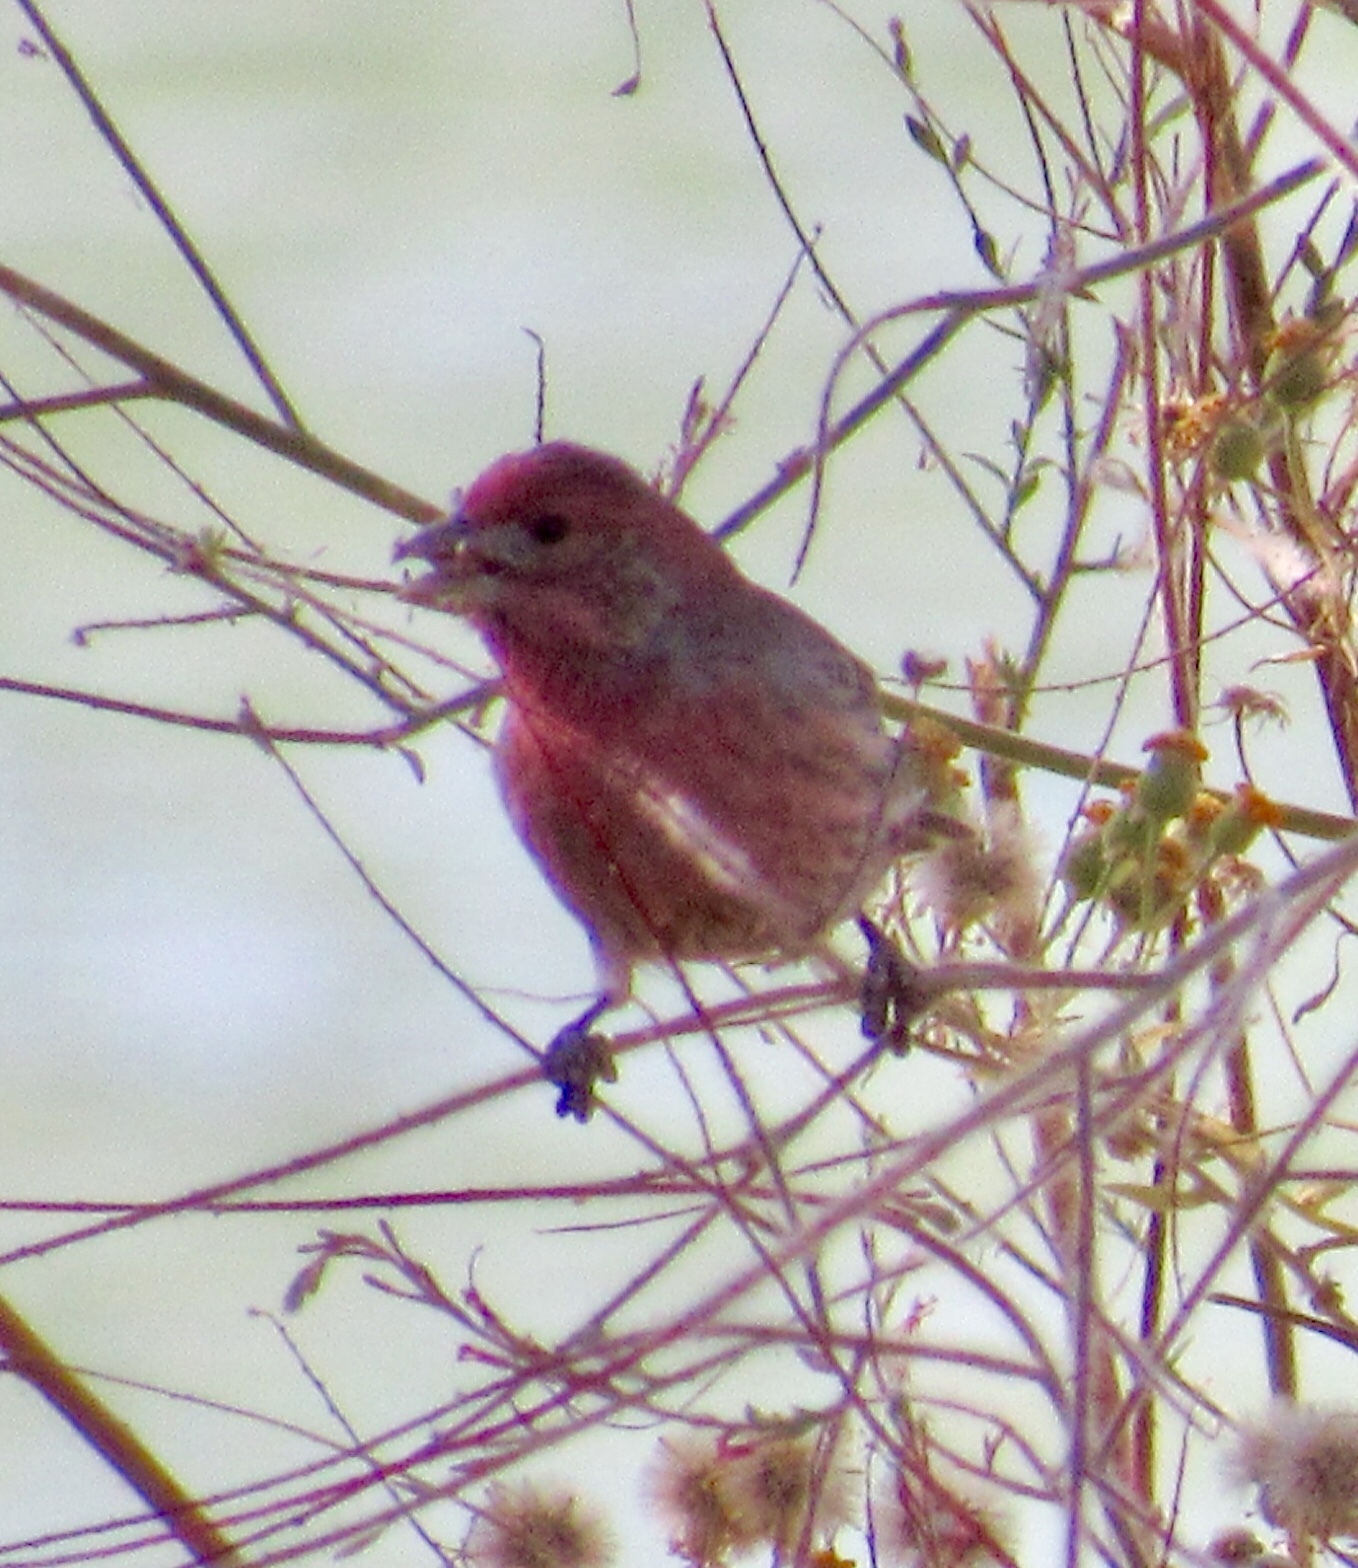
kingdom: Animalia
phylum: Chordata
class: Aves
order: Passeriformes
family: Fringillidae
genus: Haemorhous
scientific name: Haemorhous mexicanus
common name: House finch
